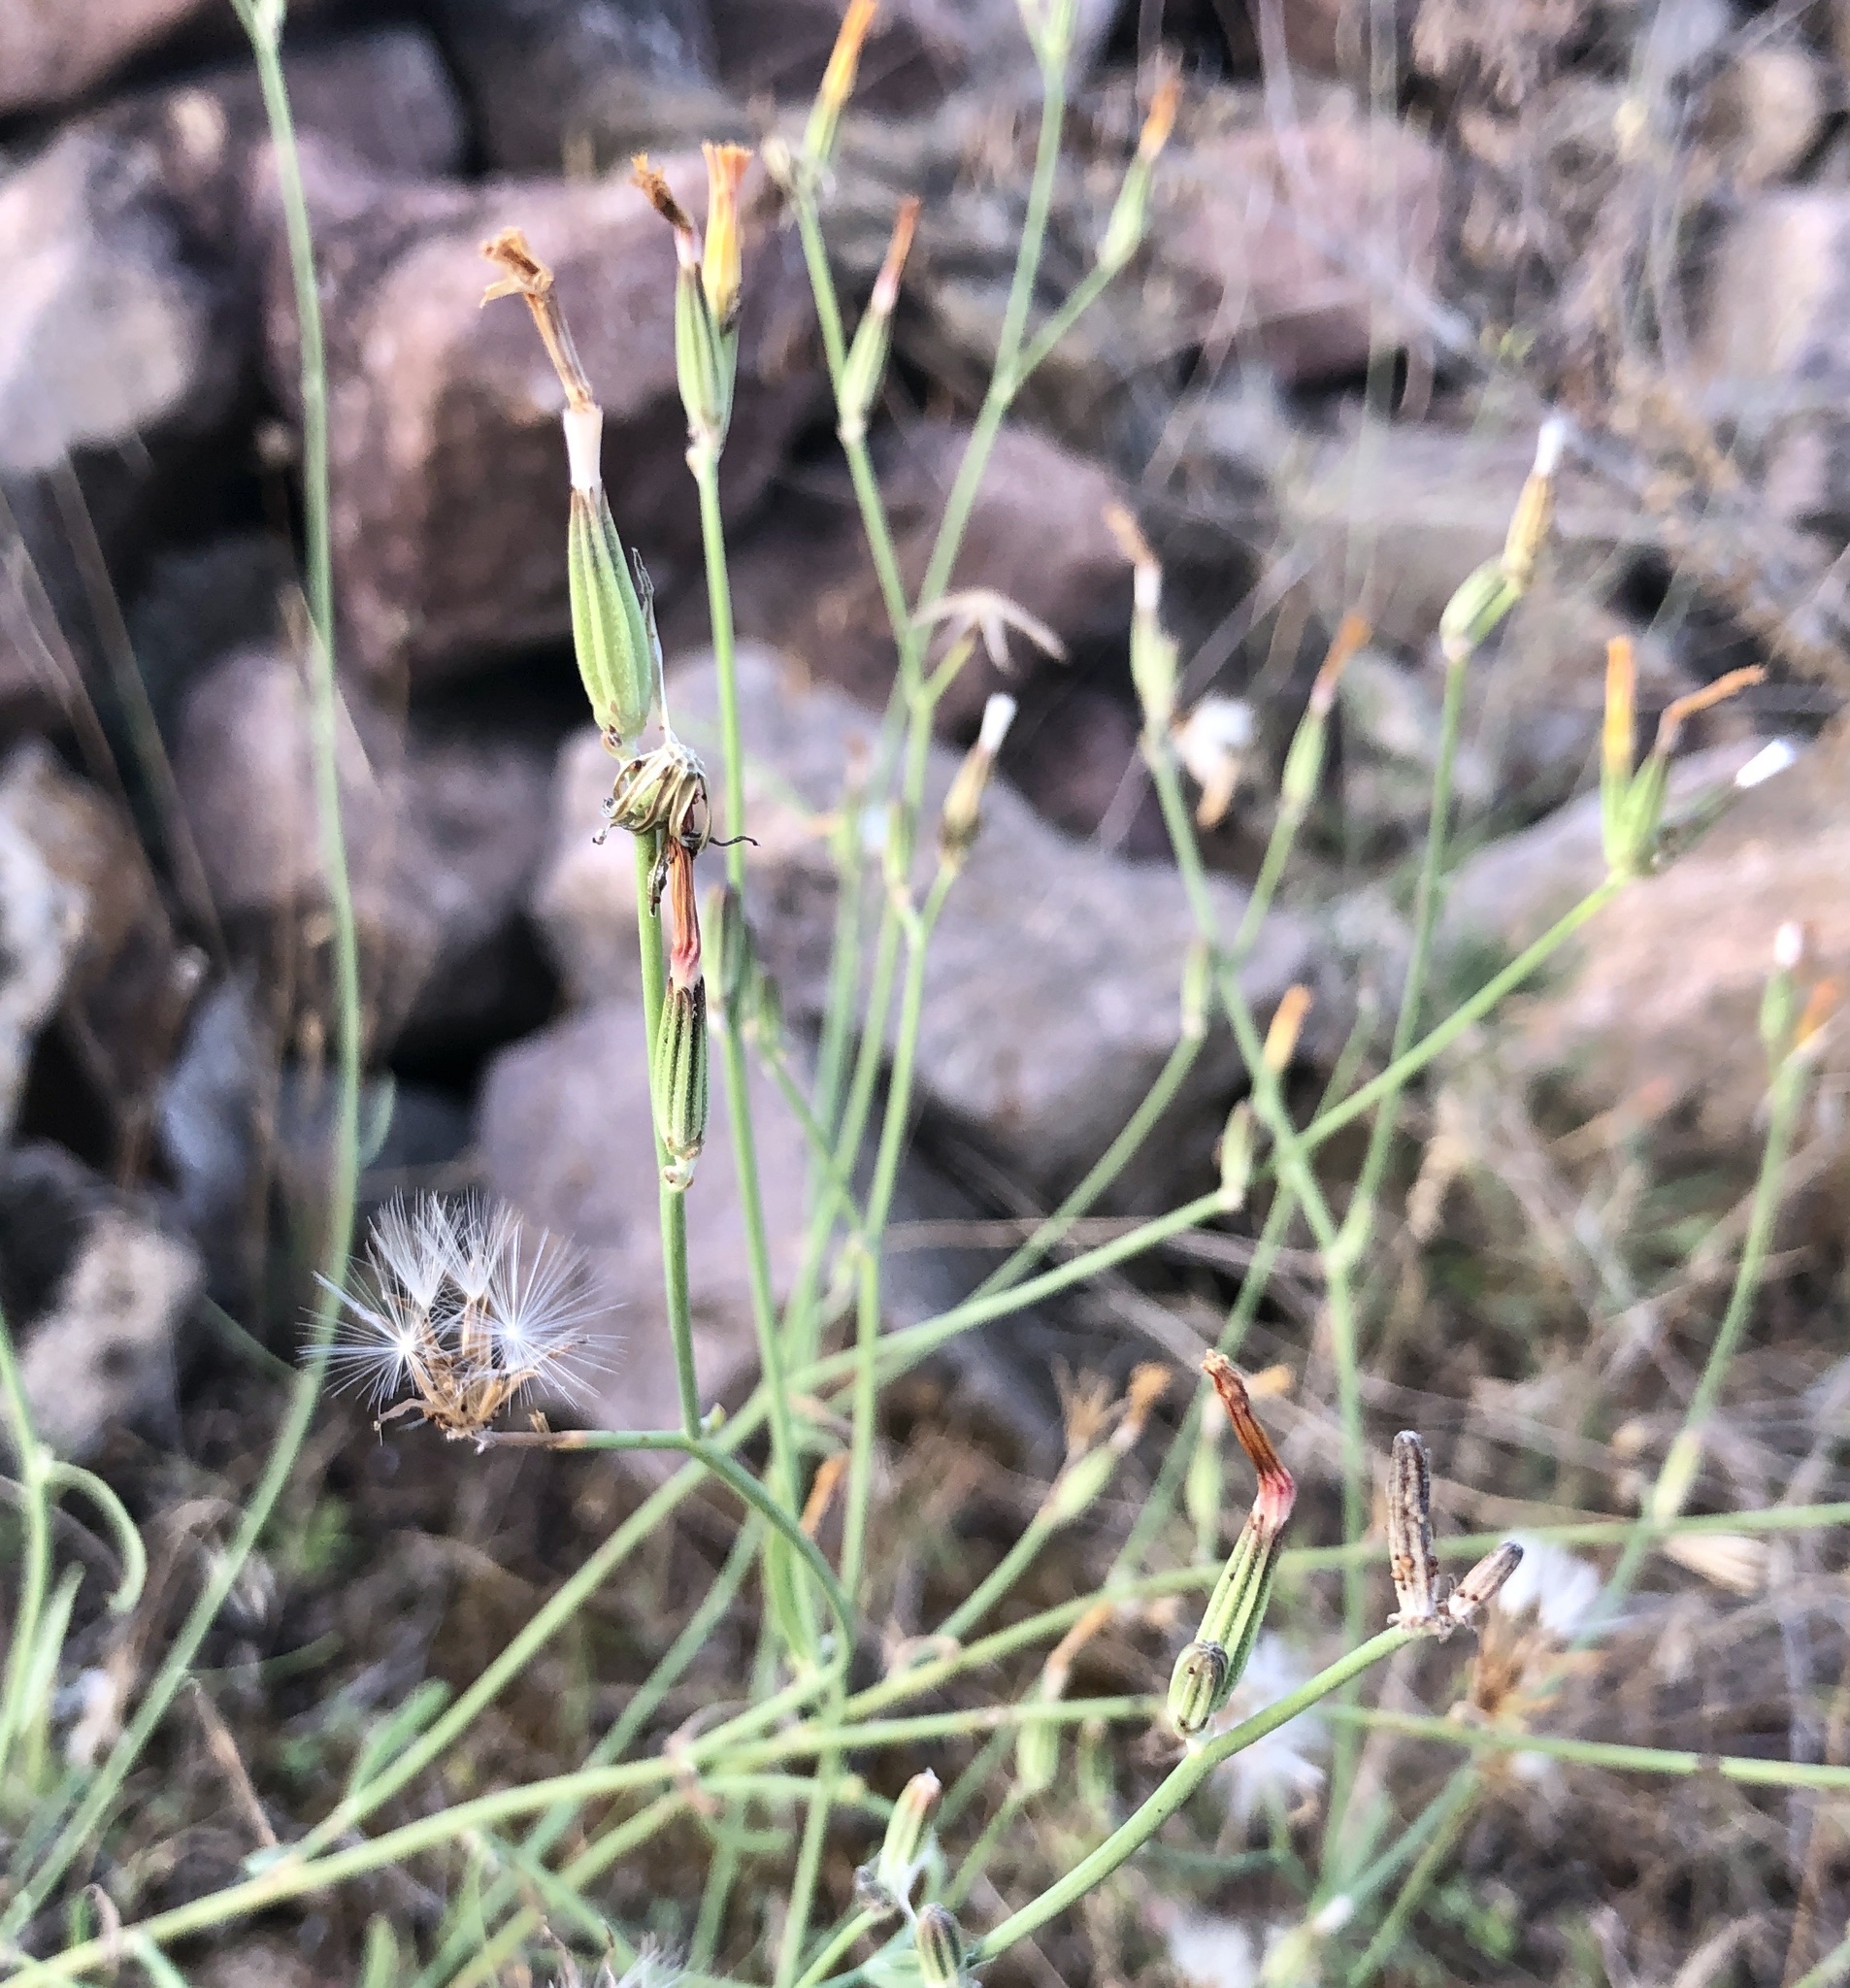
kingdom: Plantae
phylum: Tracheophyta
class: Magnoliopsida
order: Asterales
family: Asteraceae
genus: Chondrilla
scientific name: Chondrilla juncea
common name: Skeleton weed
